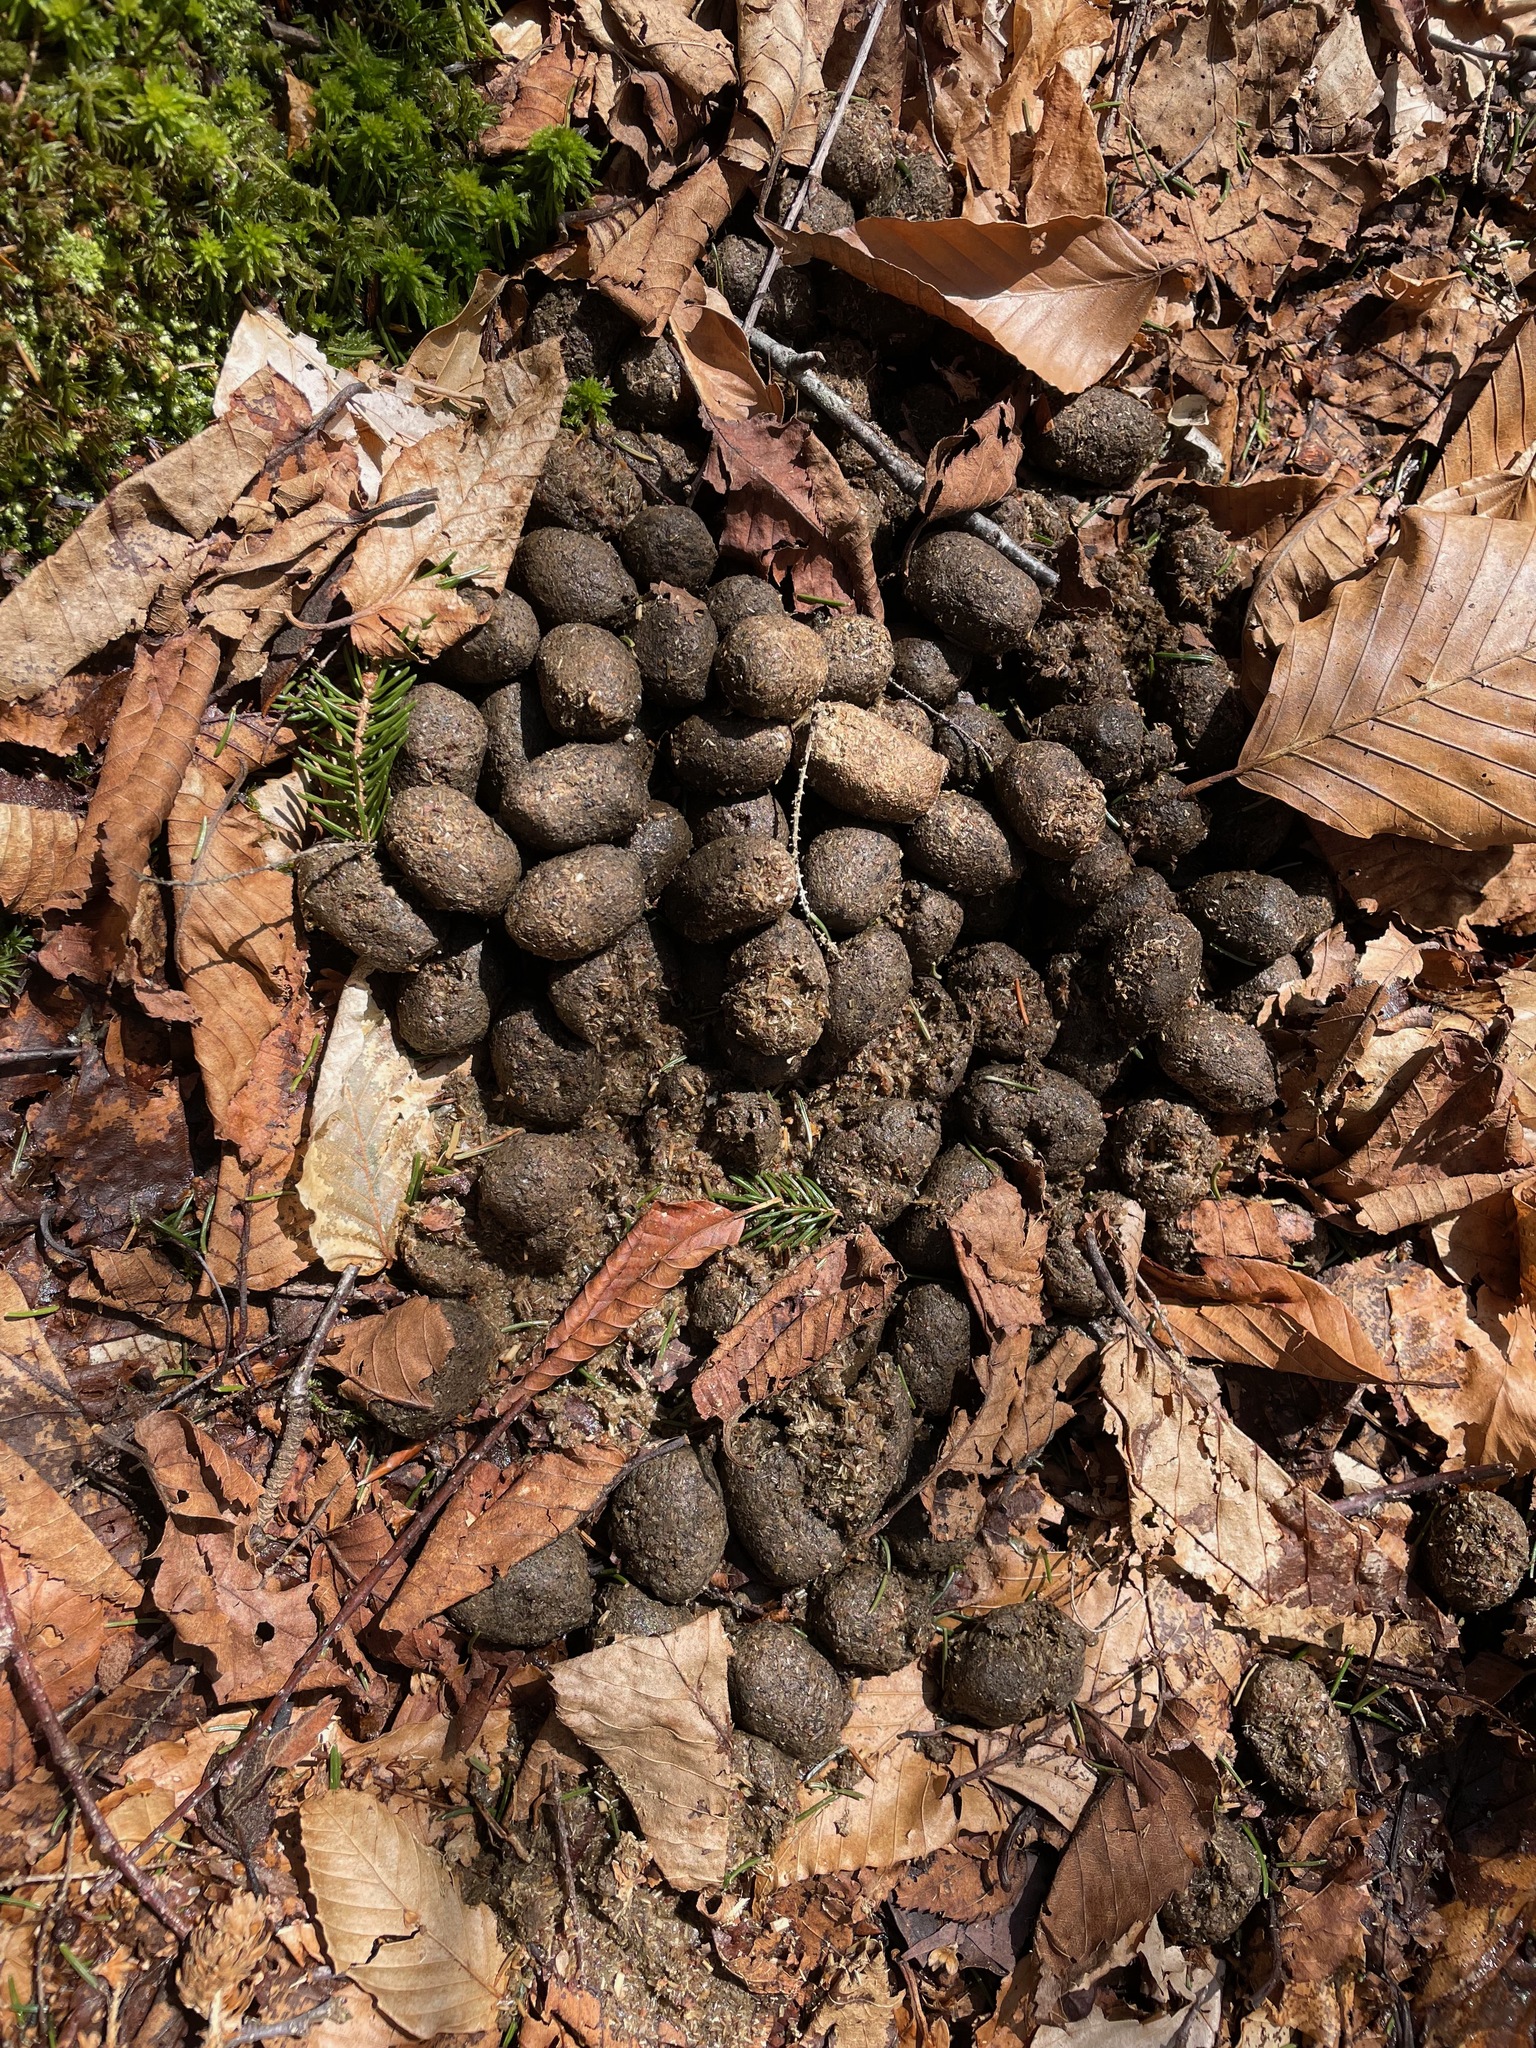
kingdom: Animalia
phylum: Chordata
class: Mammalia
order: Artiodactyla
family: Cervidae
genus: Alces
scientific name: Alces alces
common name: Moose
